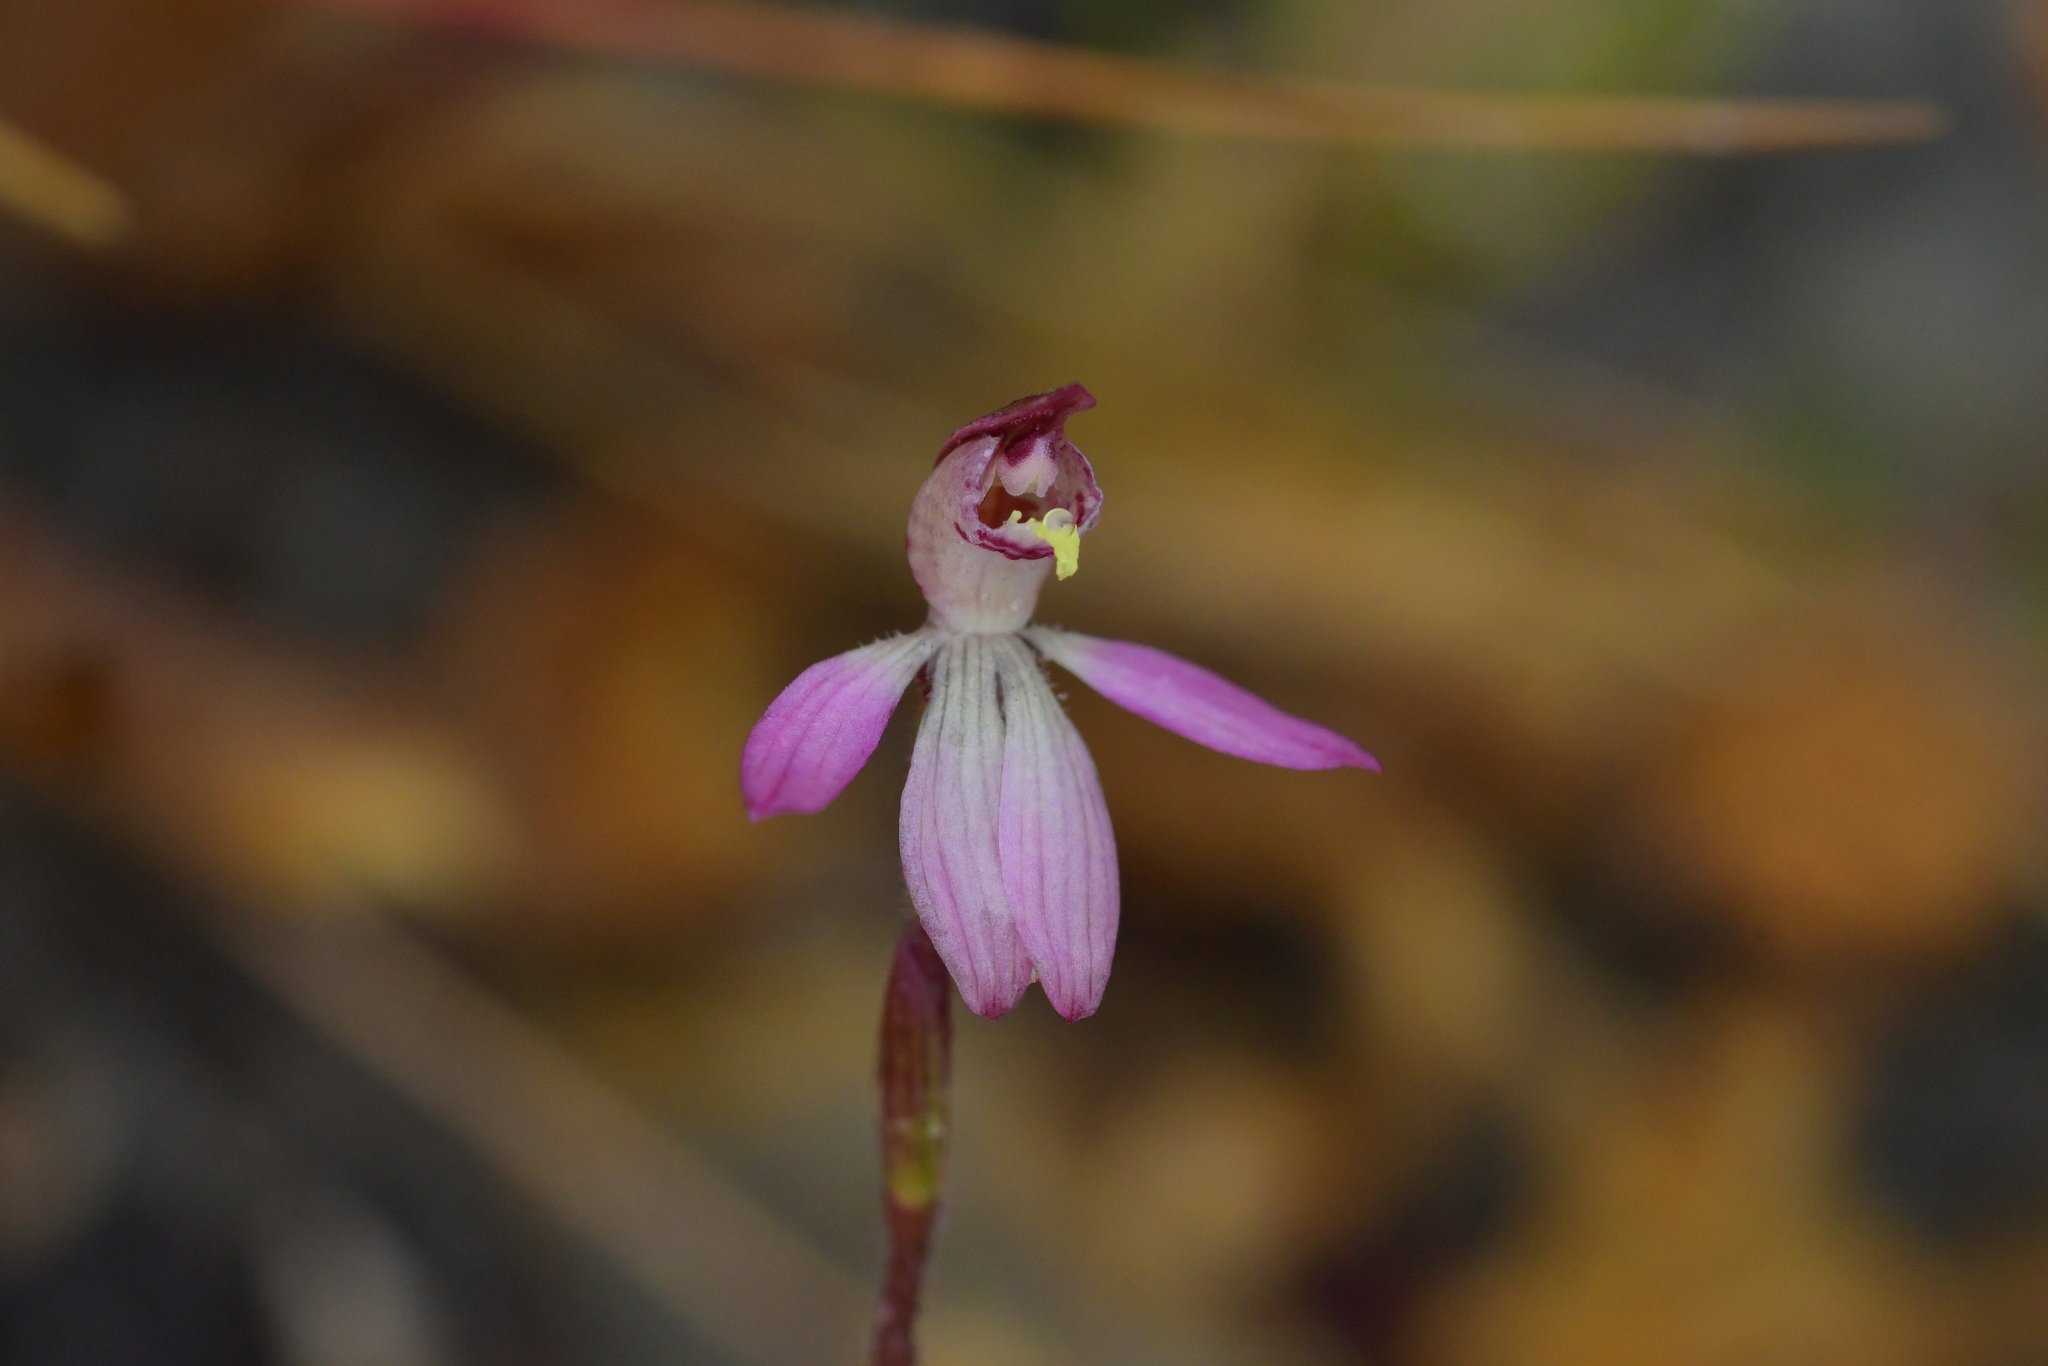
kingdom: Plantae
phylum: Tracheophyta
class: Liliopsida
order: Asparagales
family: Orchidaceae
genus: Caladenia
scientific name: Caladenia minor
